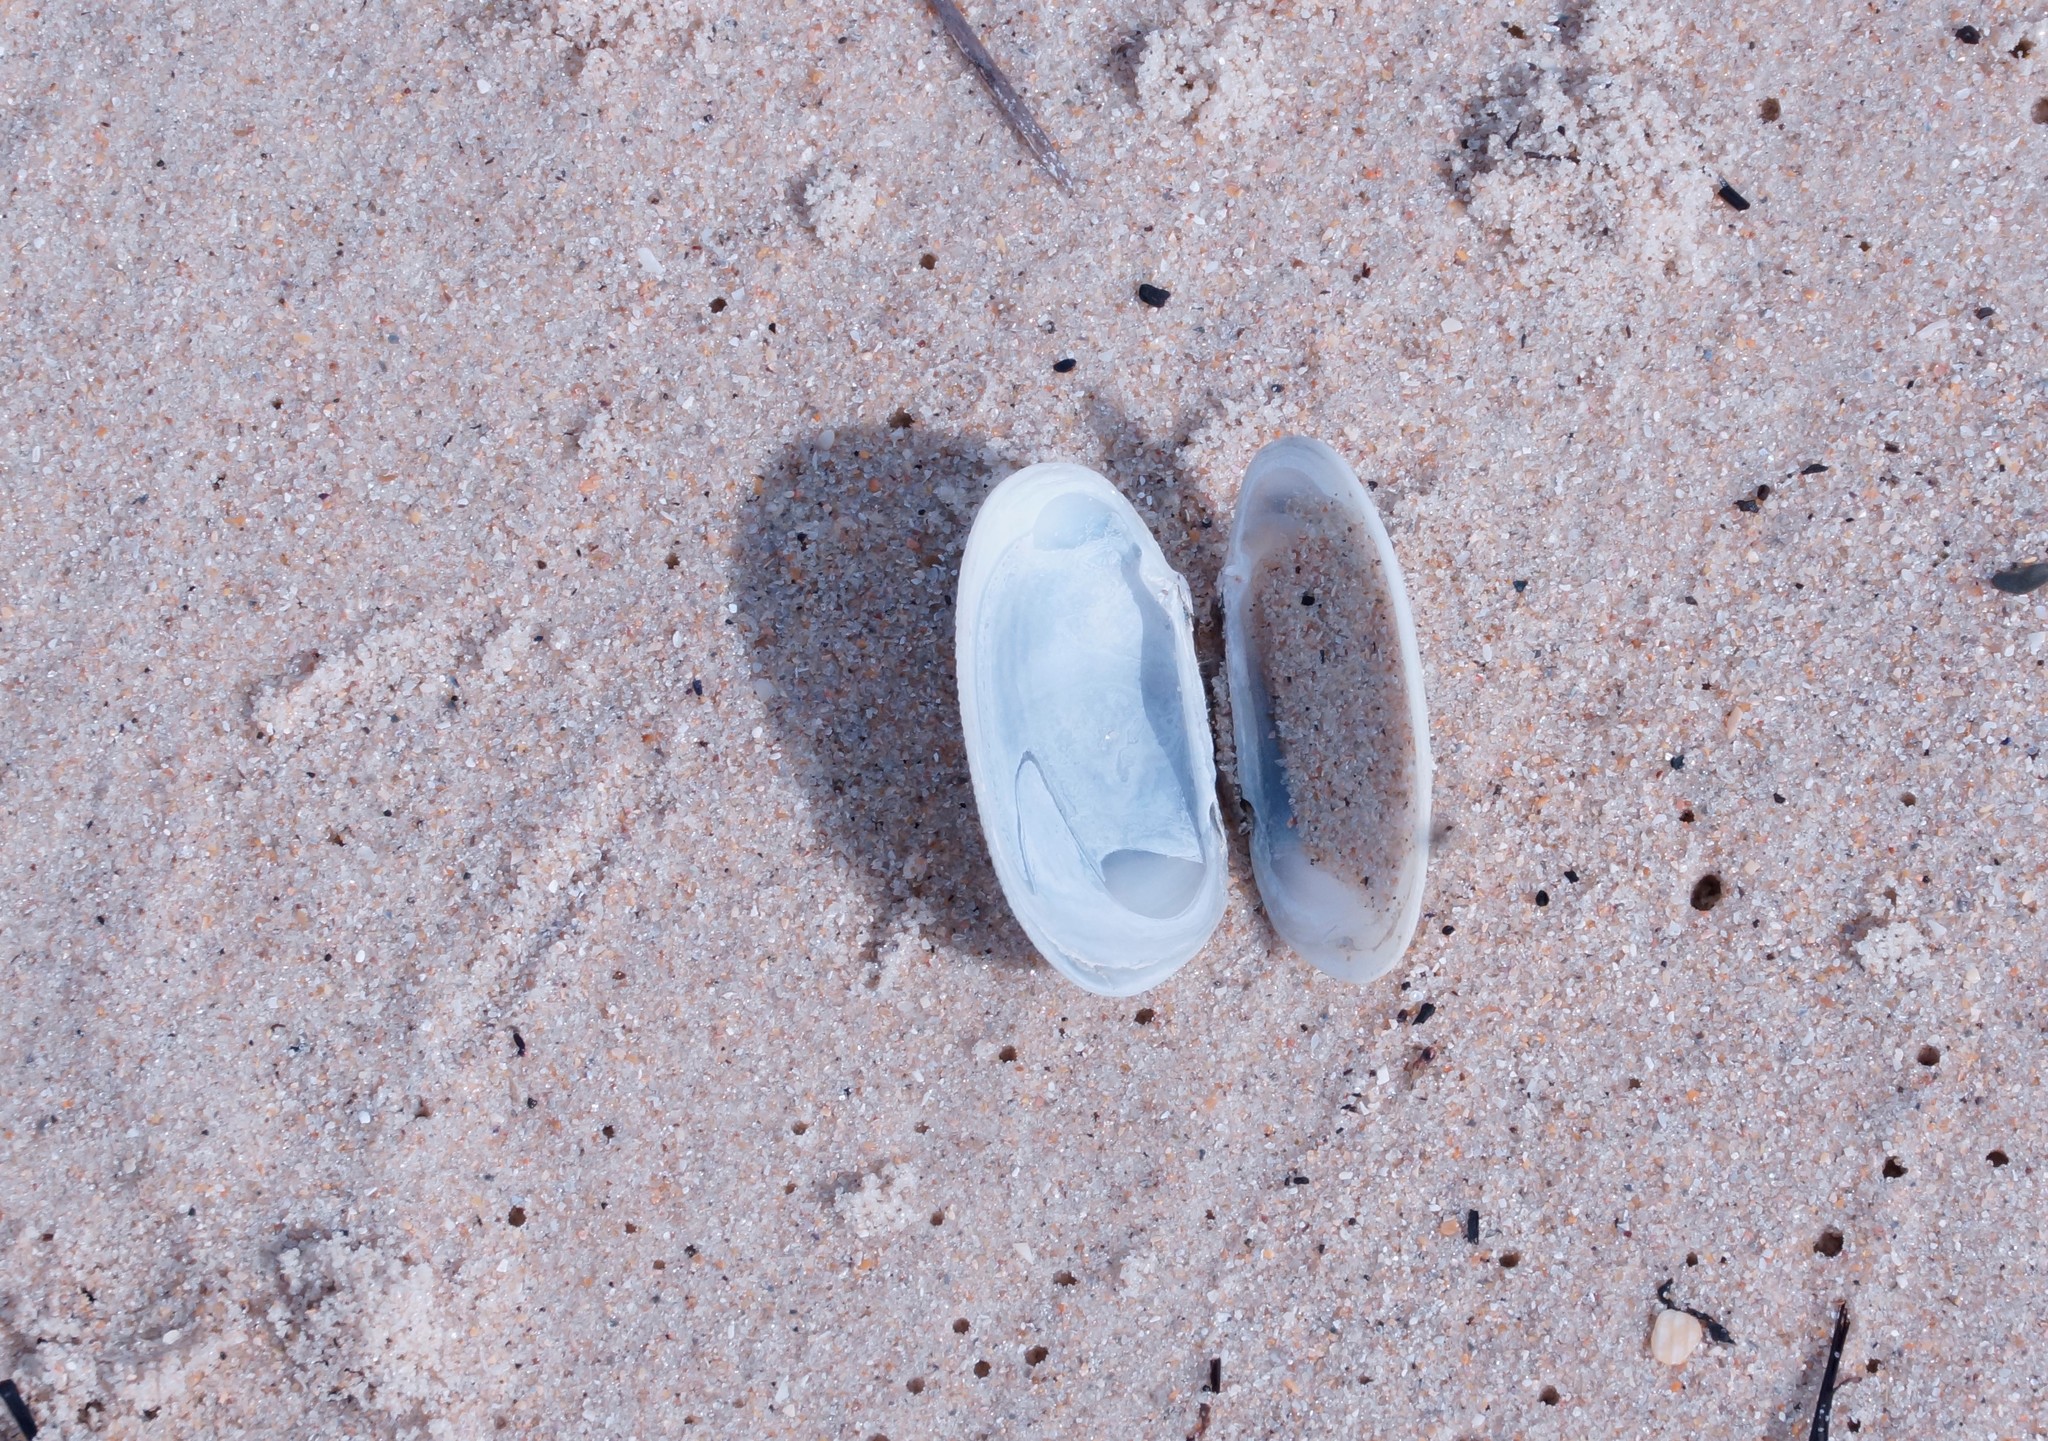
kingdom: Animalia
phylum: Mollusca
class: Bivalvia
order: Venerida
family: Veneridae
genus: Venerupis
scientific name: Venerupis galactites
